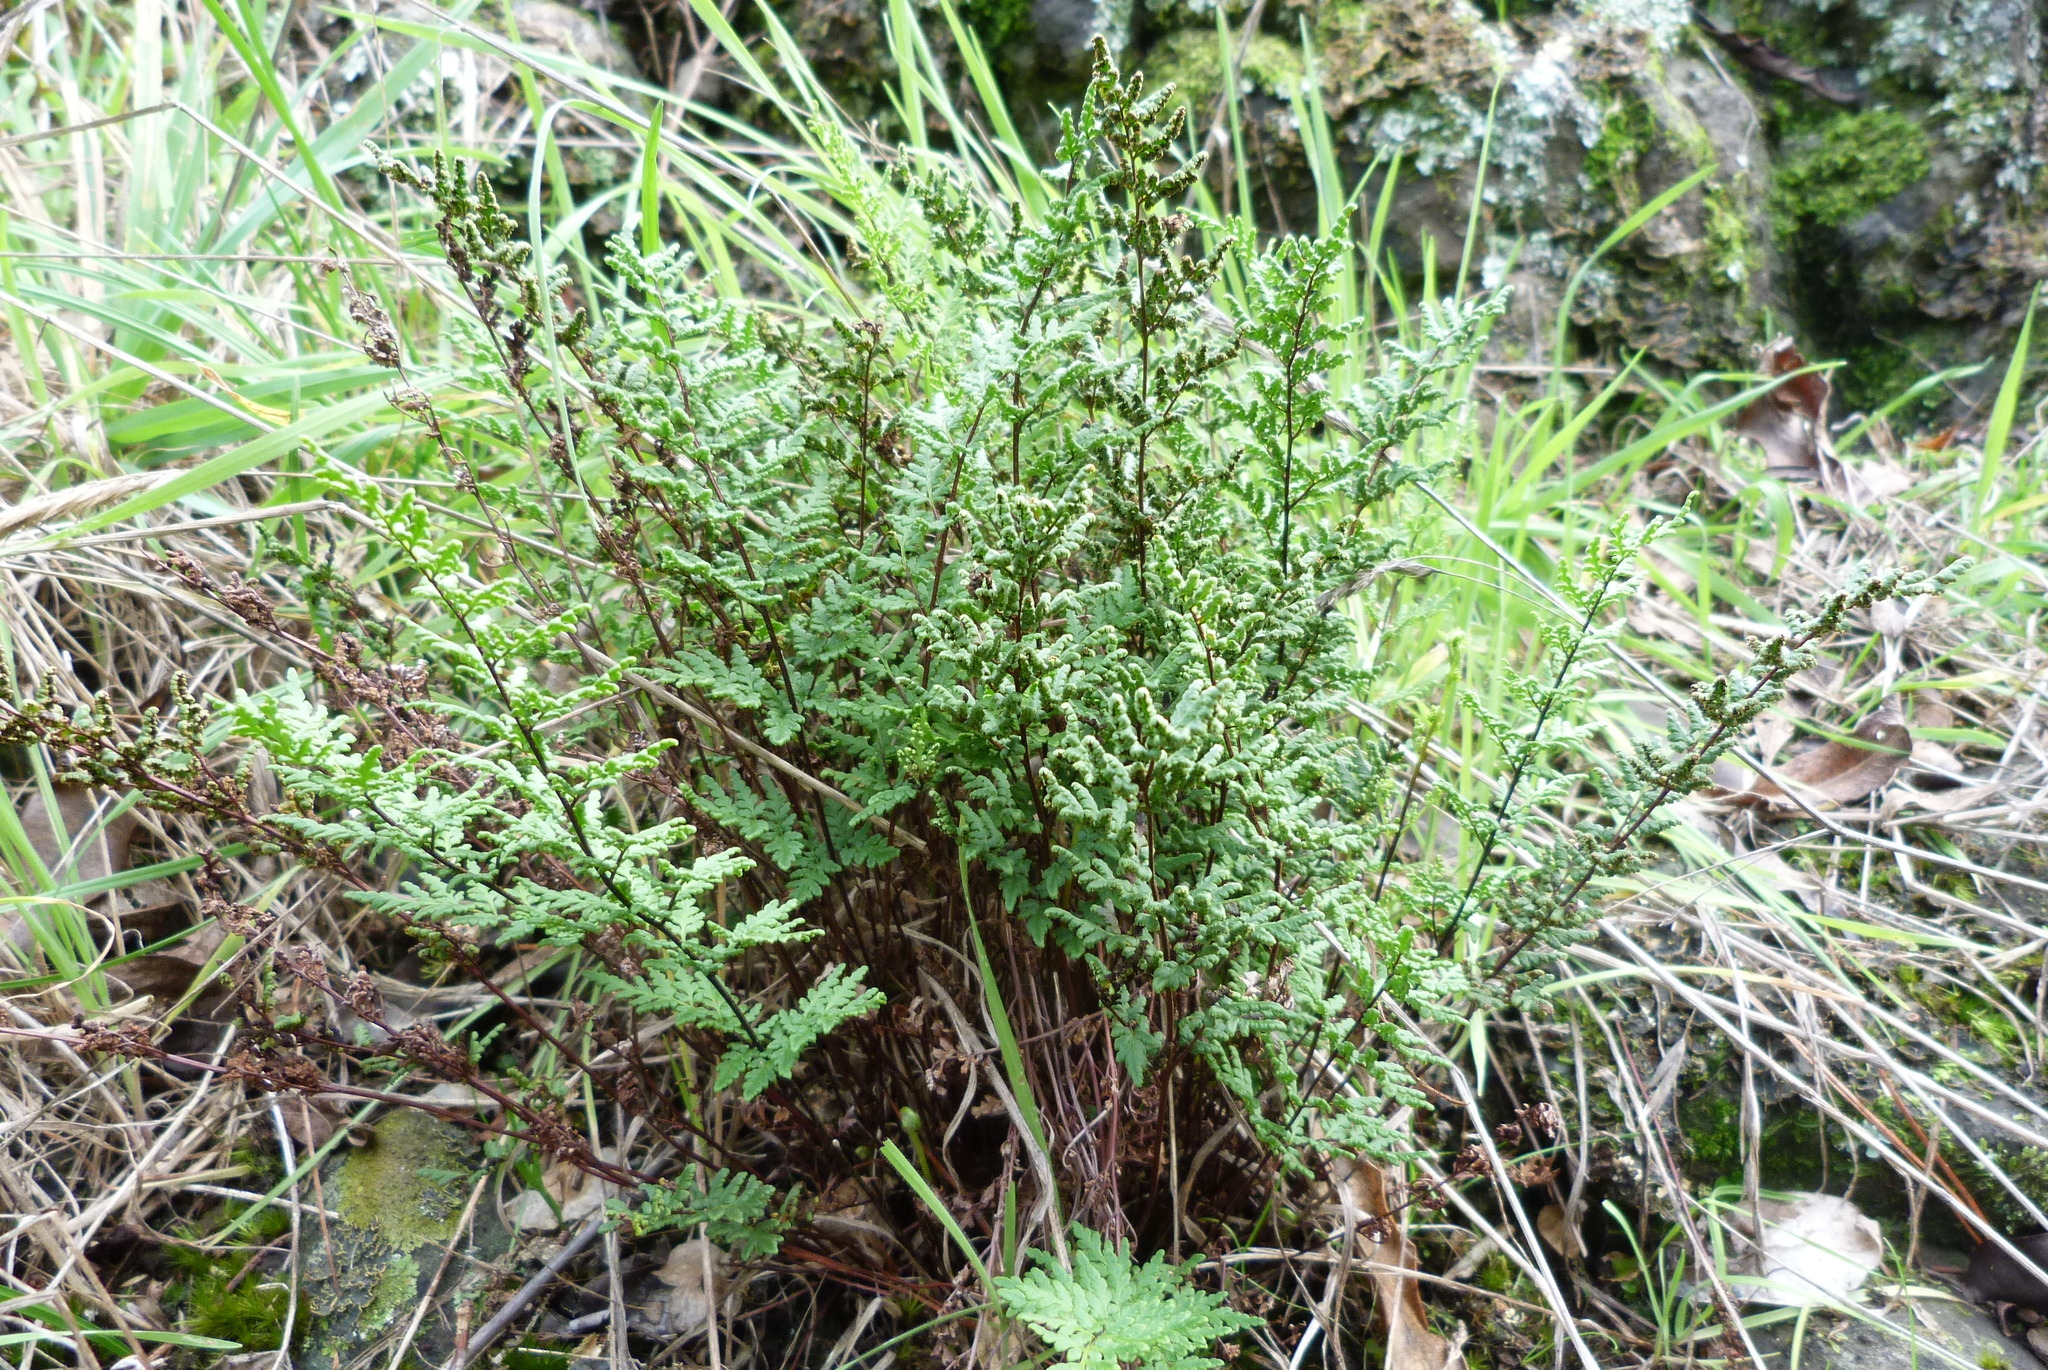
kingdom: Plantae
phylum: Tracheophyta
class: Polypodiopsida
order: Polypodiales
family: Pteridaceae
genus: Cheilanthes
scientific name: Cheilanthes sieberi
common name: Mulga fern
